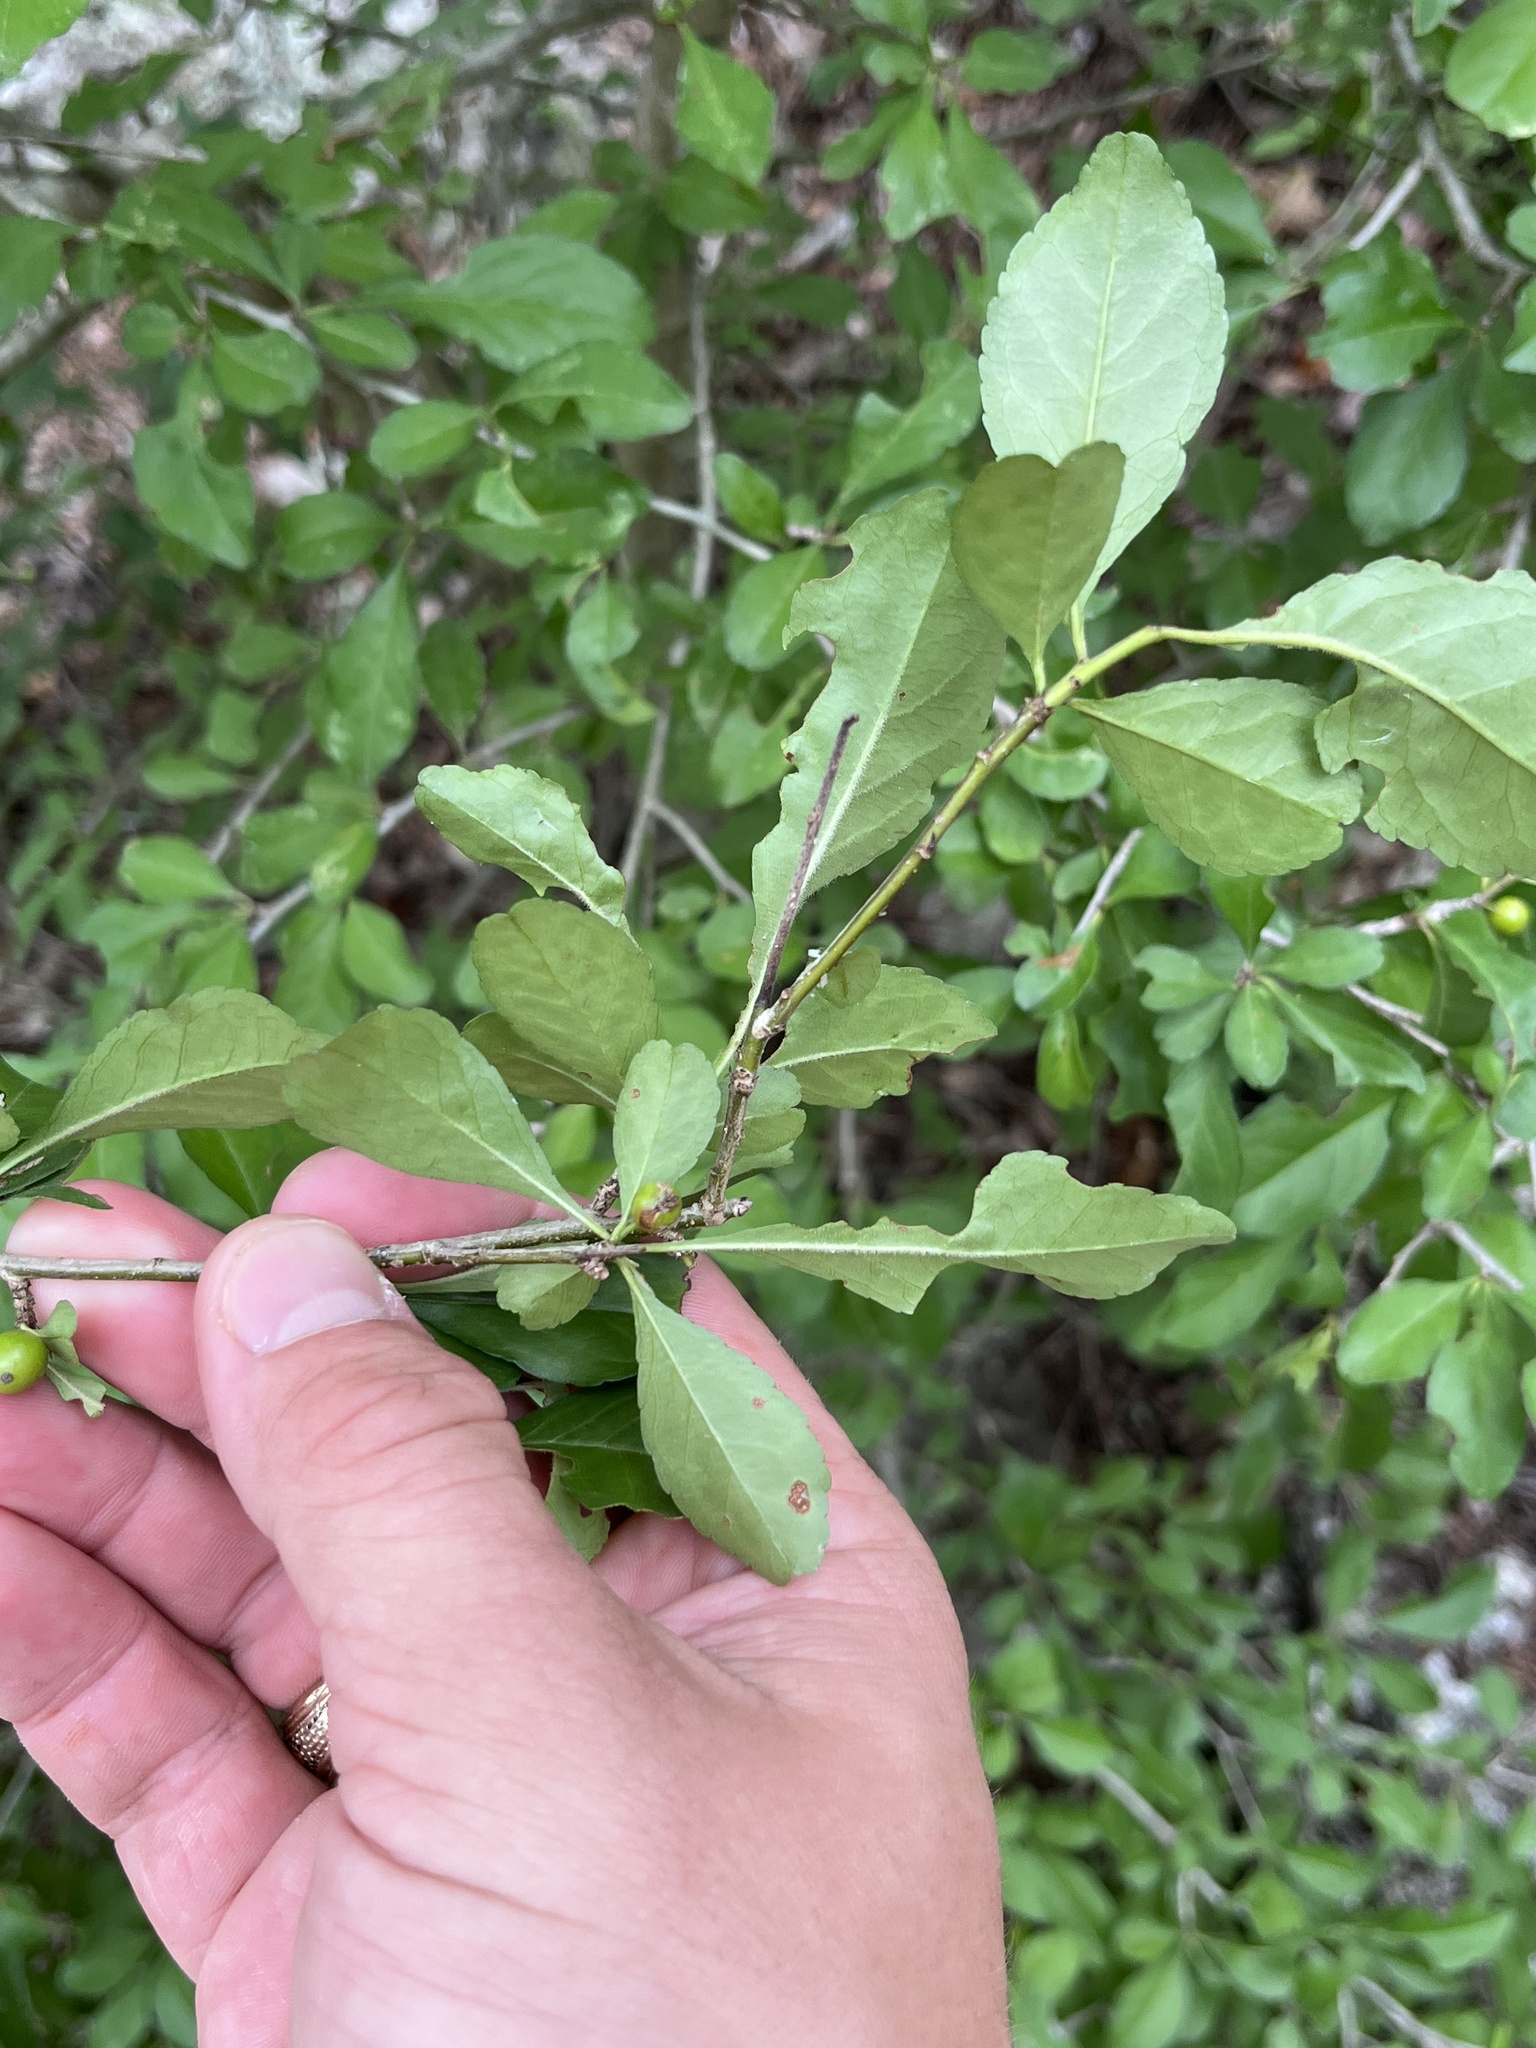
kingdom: Plantae
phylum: Tracheophyta
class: Magnoliopsida
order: Aquifoliales
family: Aquifoliaceae
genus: Ilex
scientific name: Ilex decidua
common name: Possum-haw
